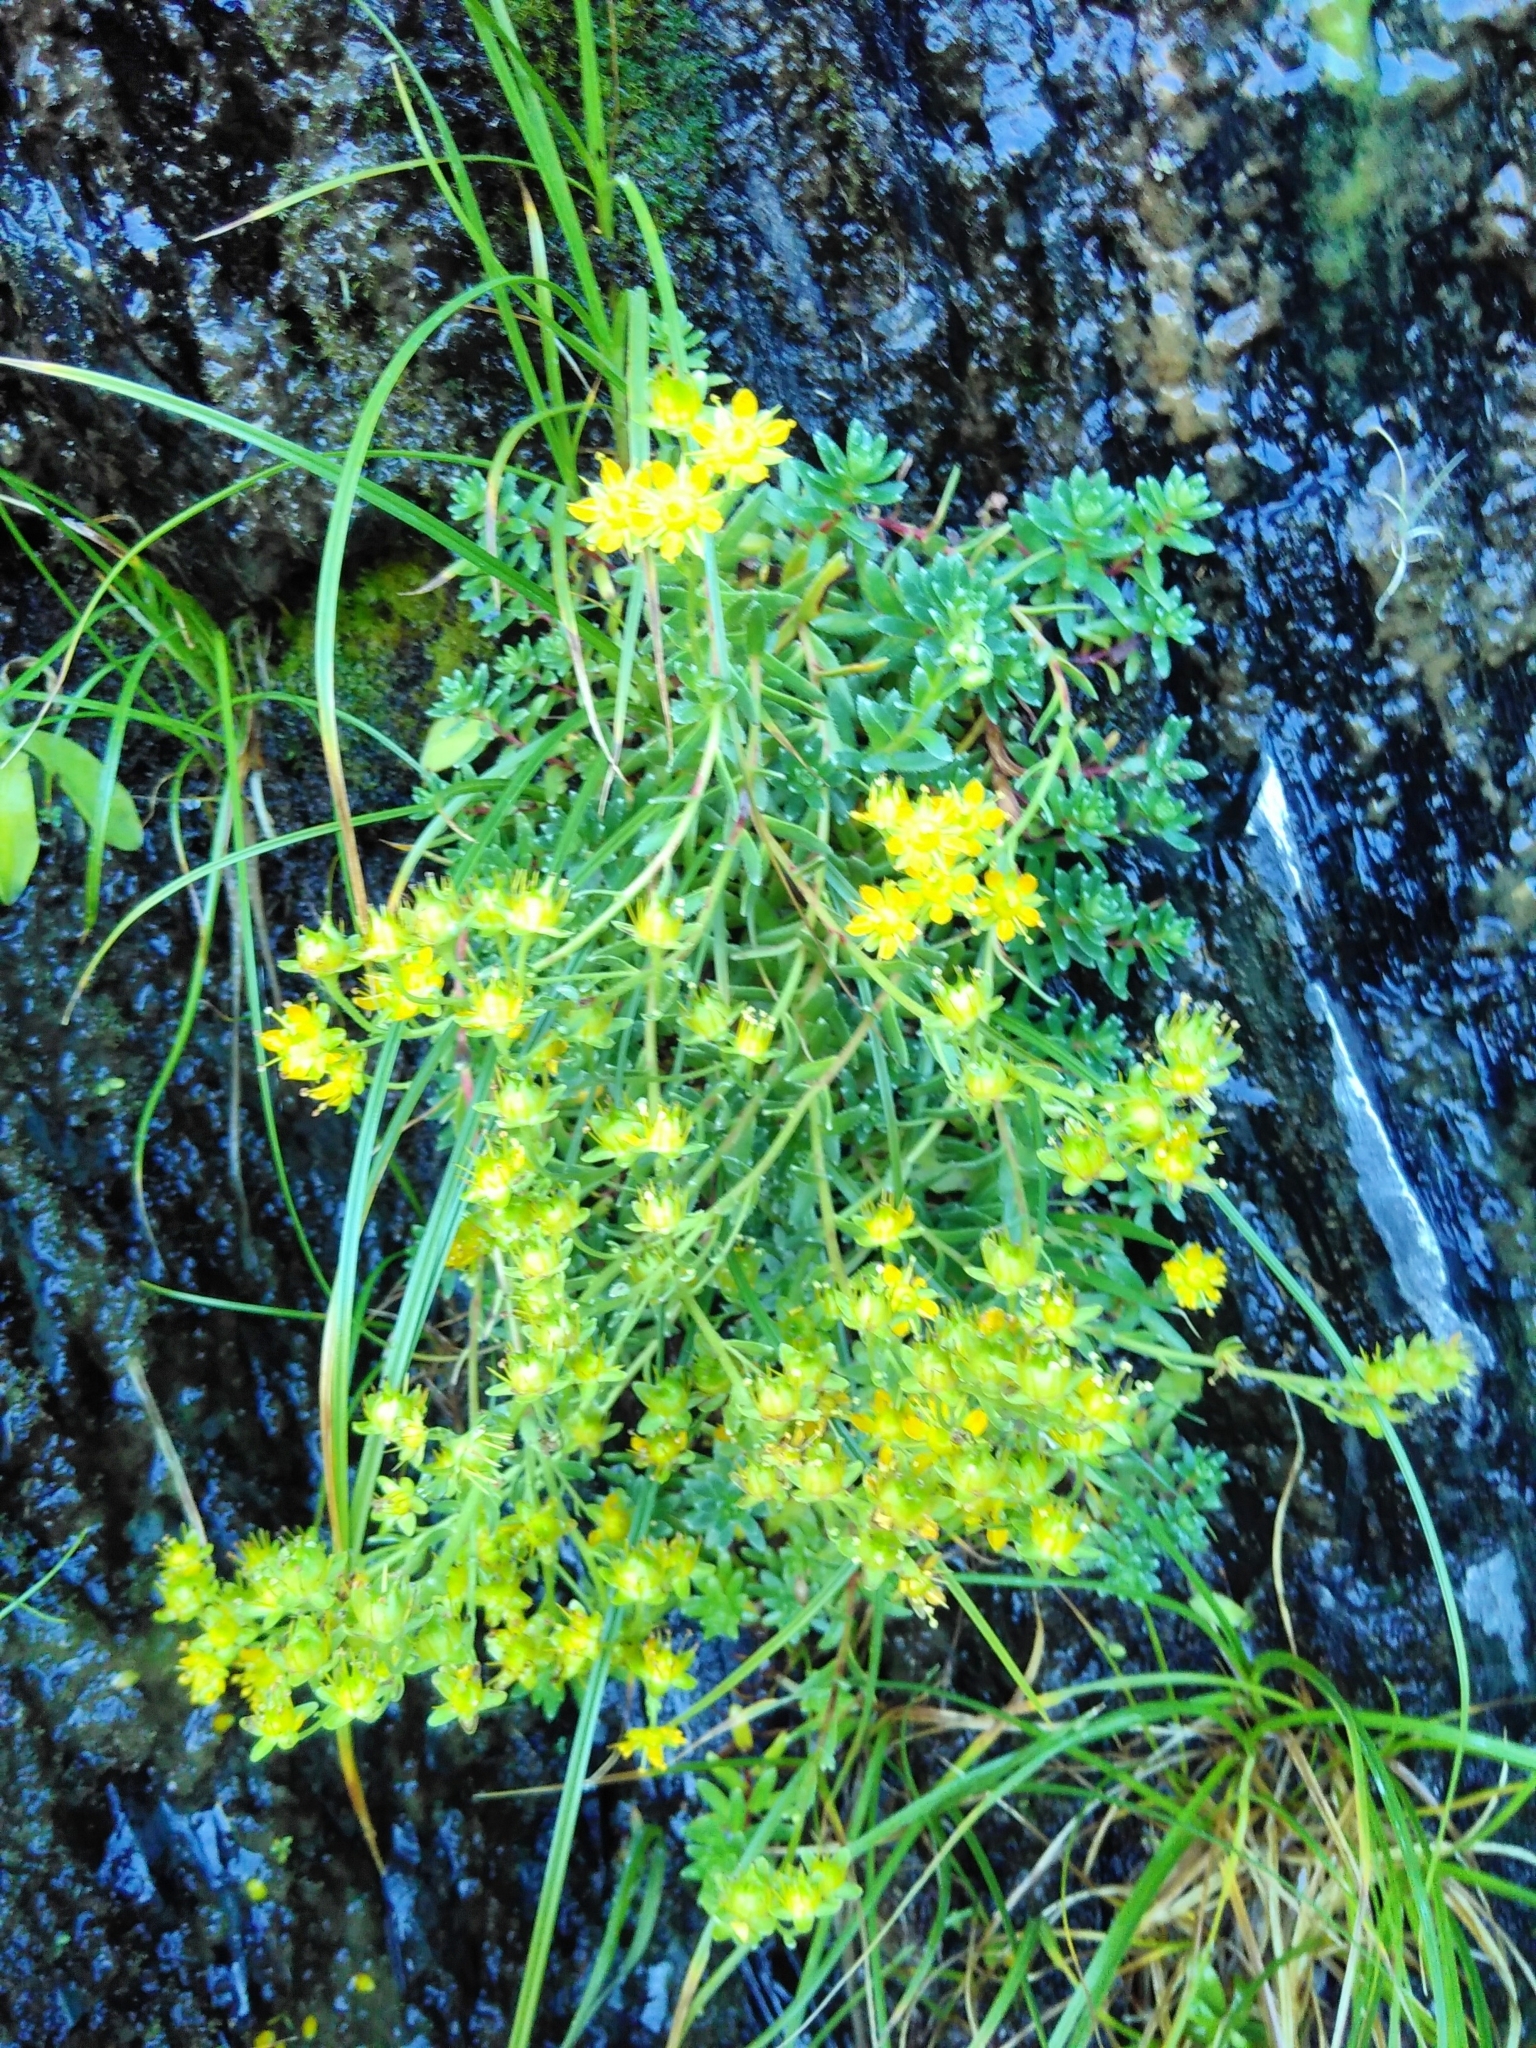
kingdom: Plantae
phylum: Tracheophyta
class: Magnoliopsida
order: Saxifragales
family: Saxifragaceae
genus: Saxifraga
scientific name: Saxifraga aizoides
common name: Yellow mountain saxifrage
